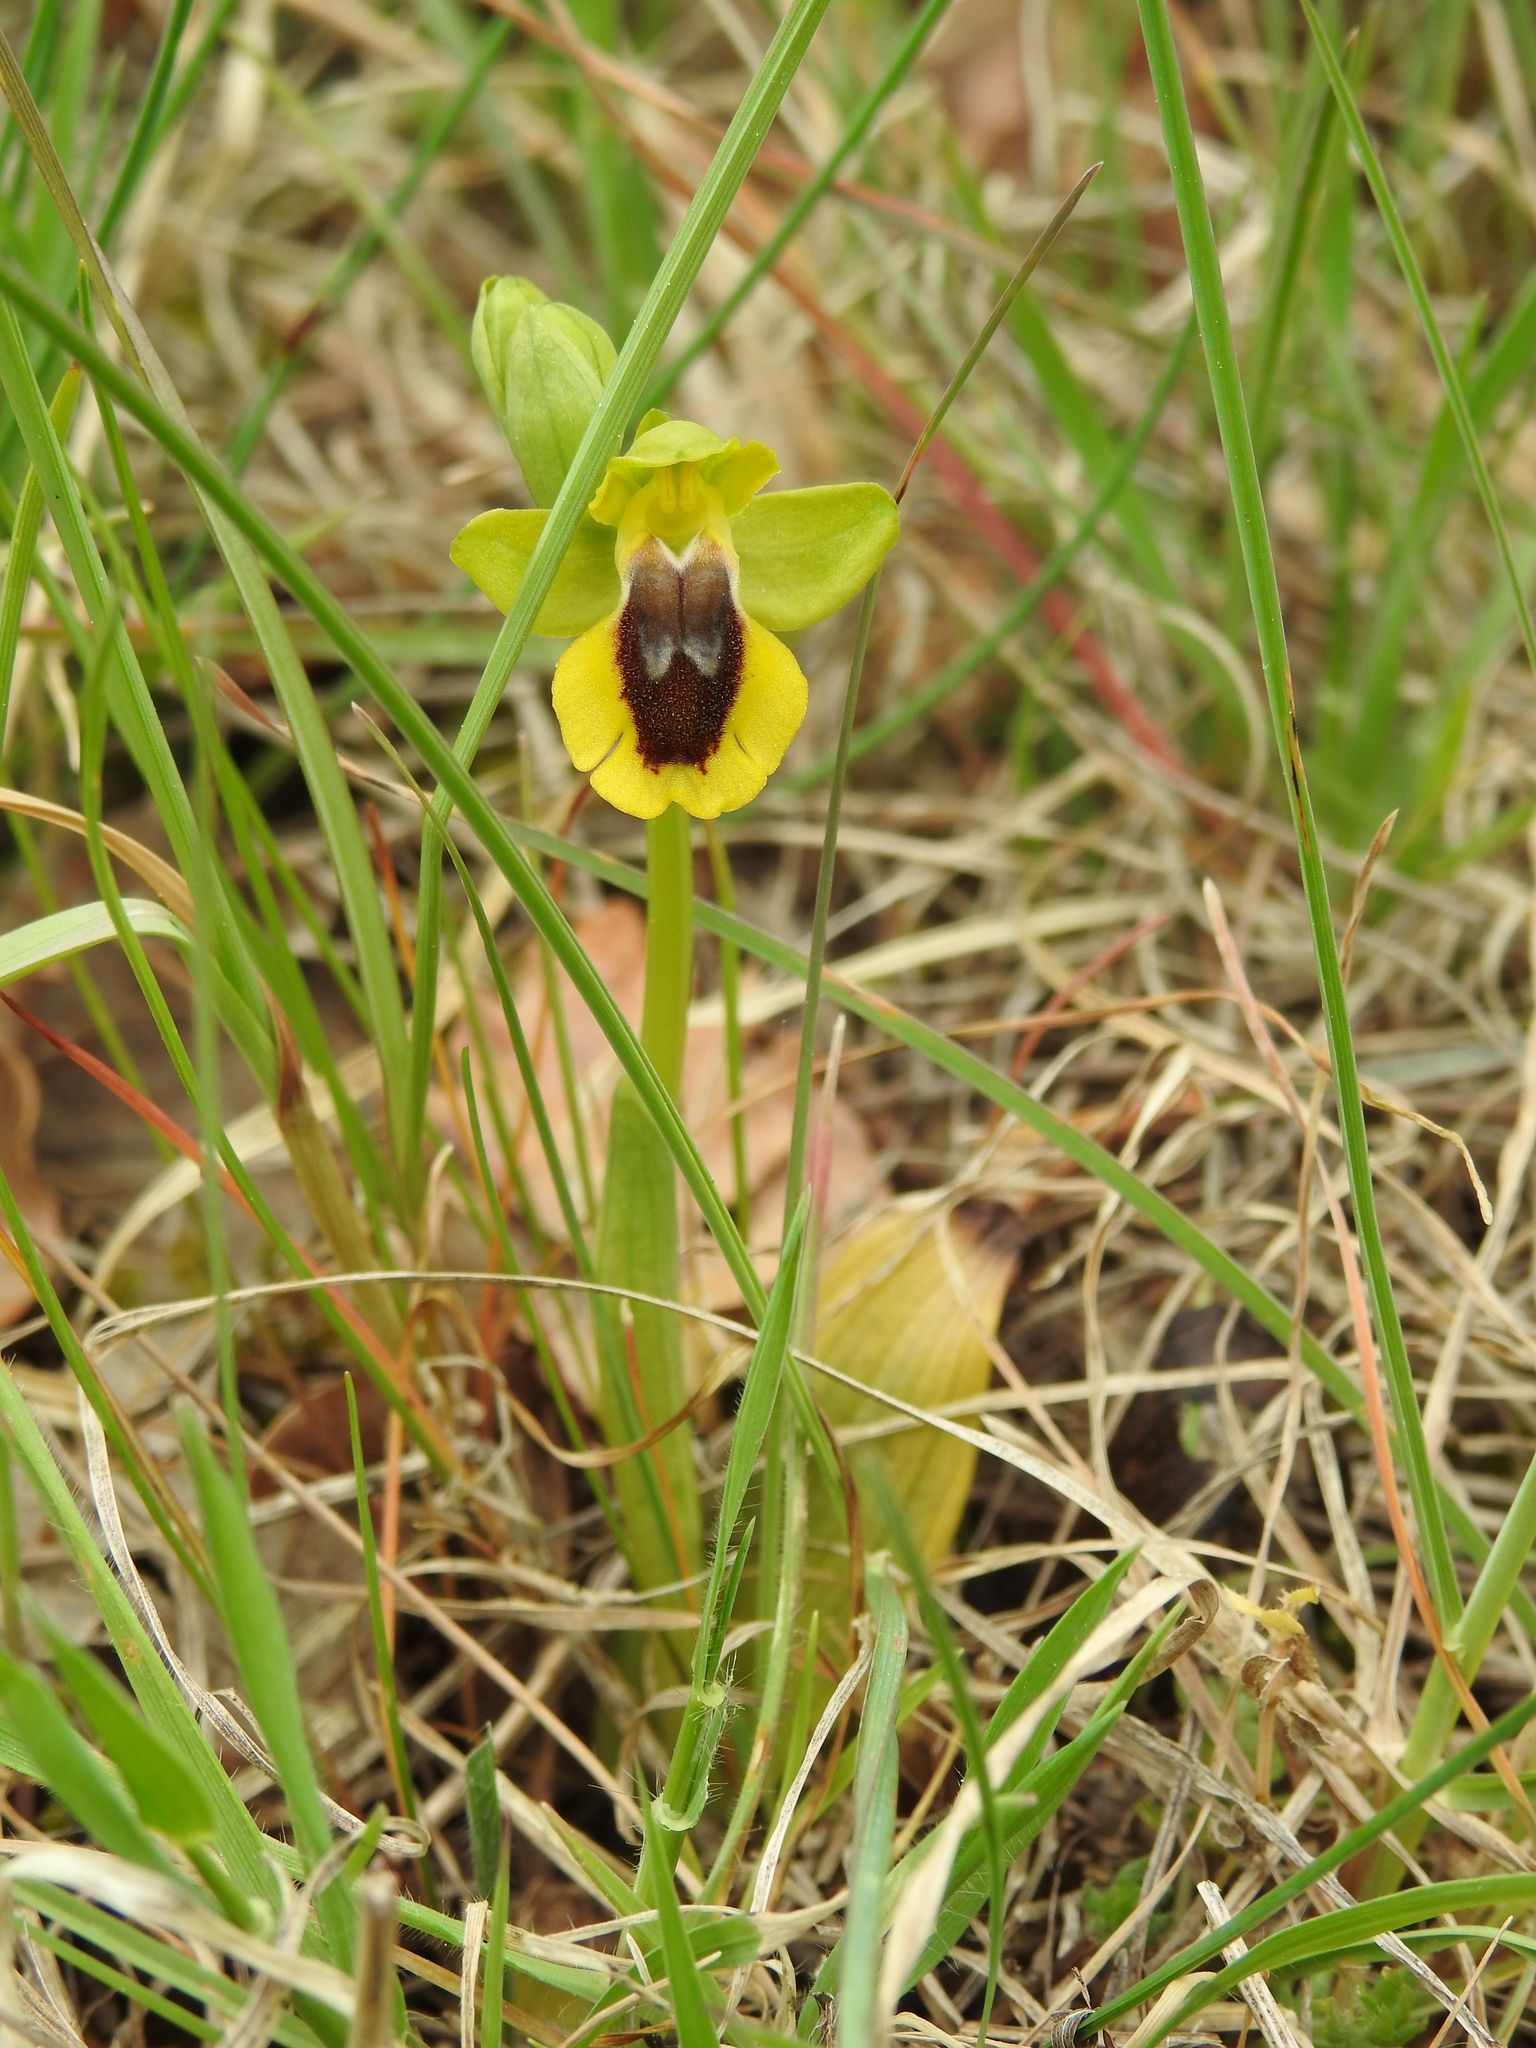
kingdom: Plantae
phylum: Tracheophyta
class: Liliopsida
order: Asparagales
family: Orchidaceae
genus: Ophrys
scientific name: Ophrys lutea
